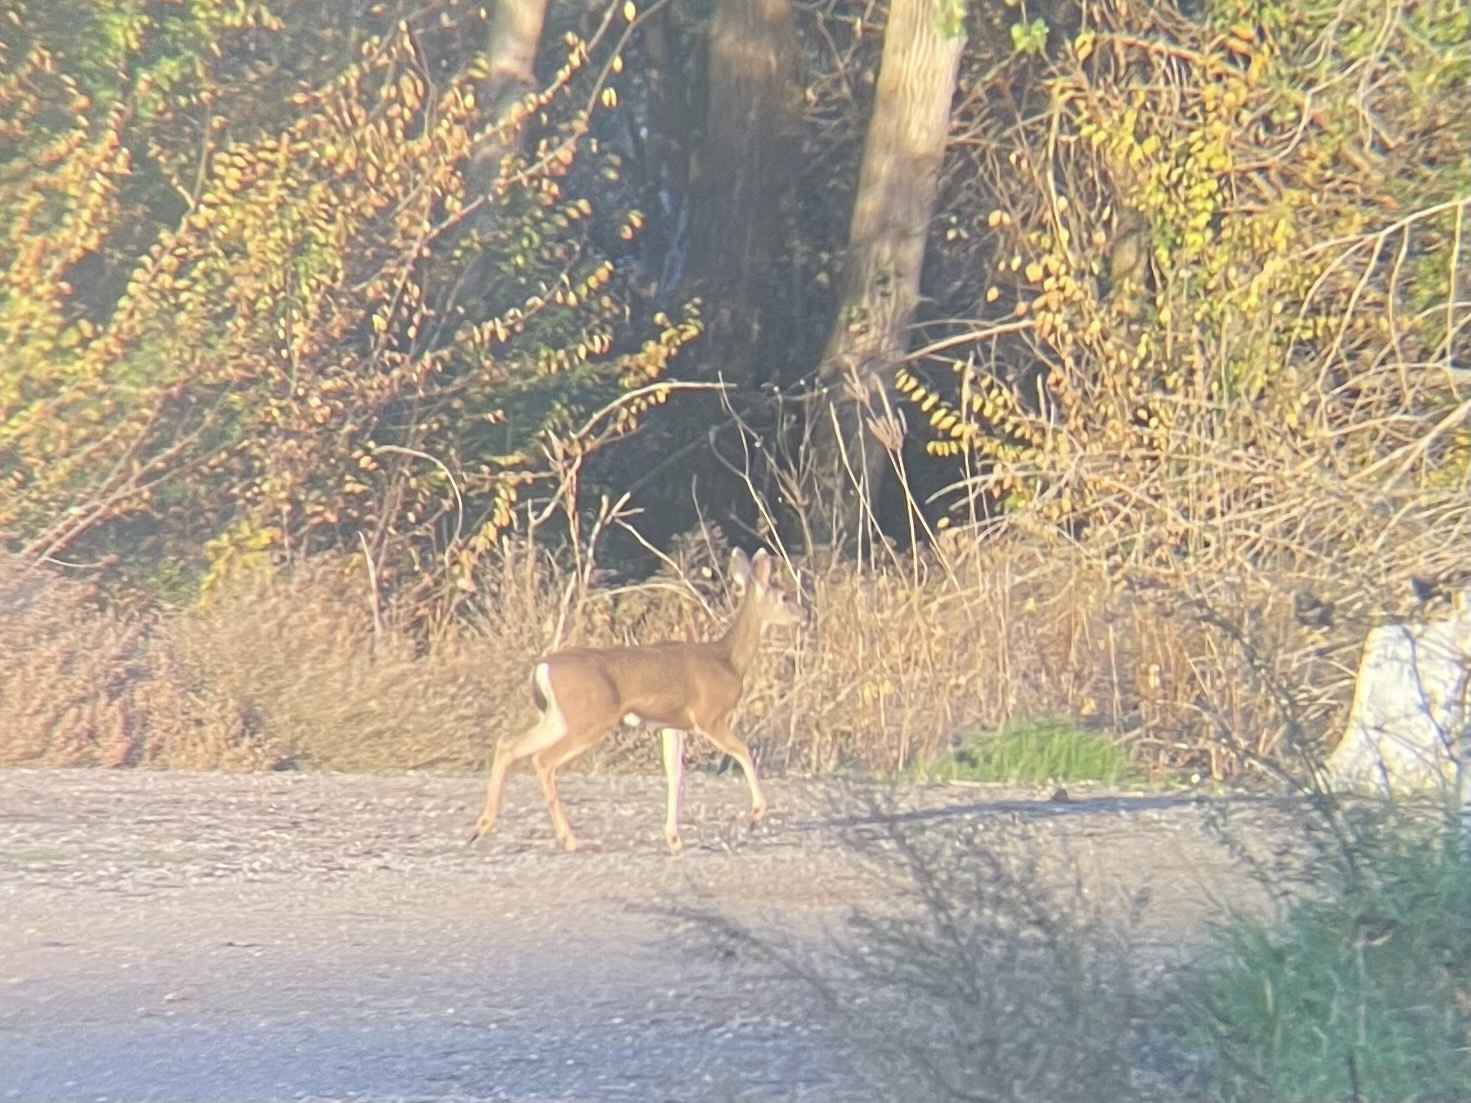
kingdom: Animalia
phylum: Chordata
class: Mammalia
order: Artiodactyla
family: Cervidae
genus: Odocoileus
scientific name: Odocoileus hemionus
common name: Mule deer
